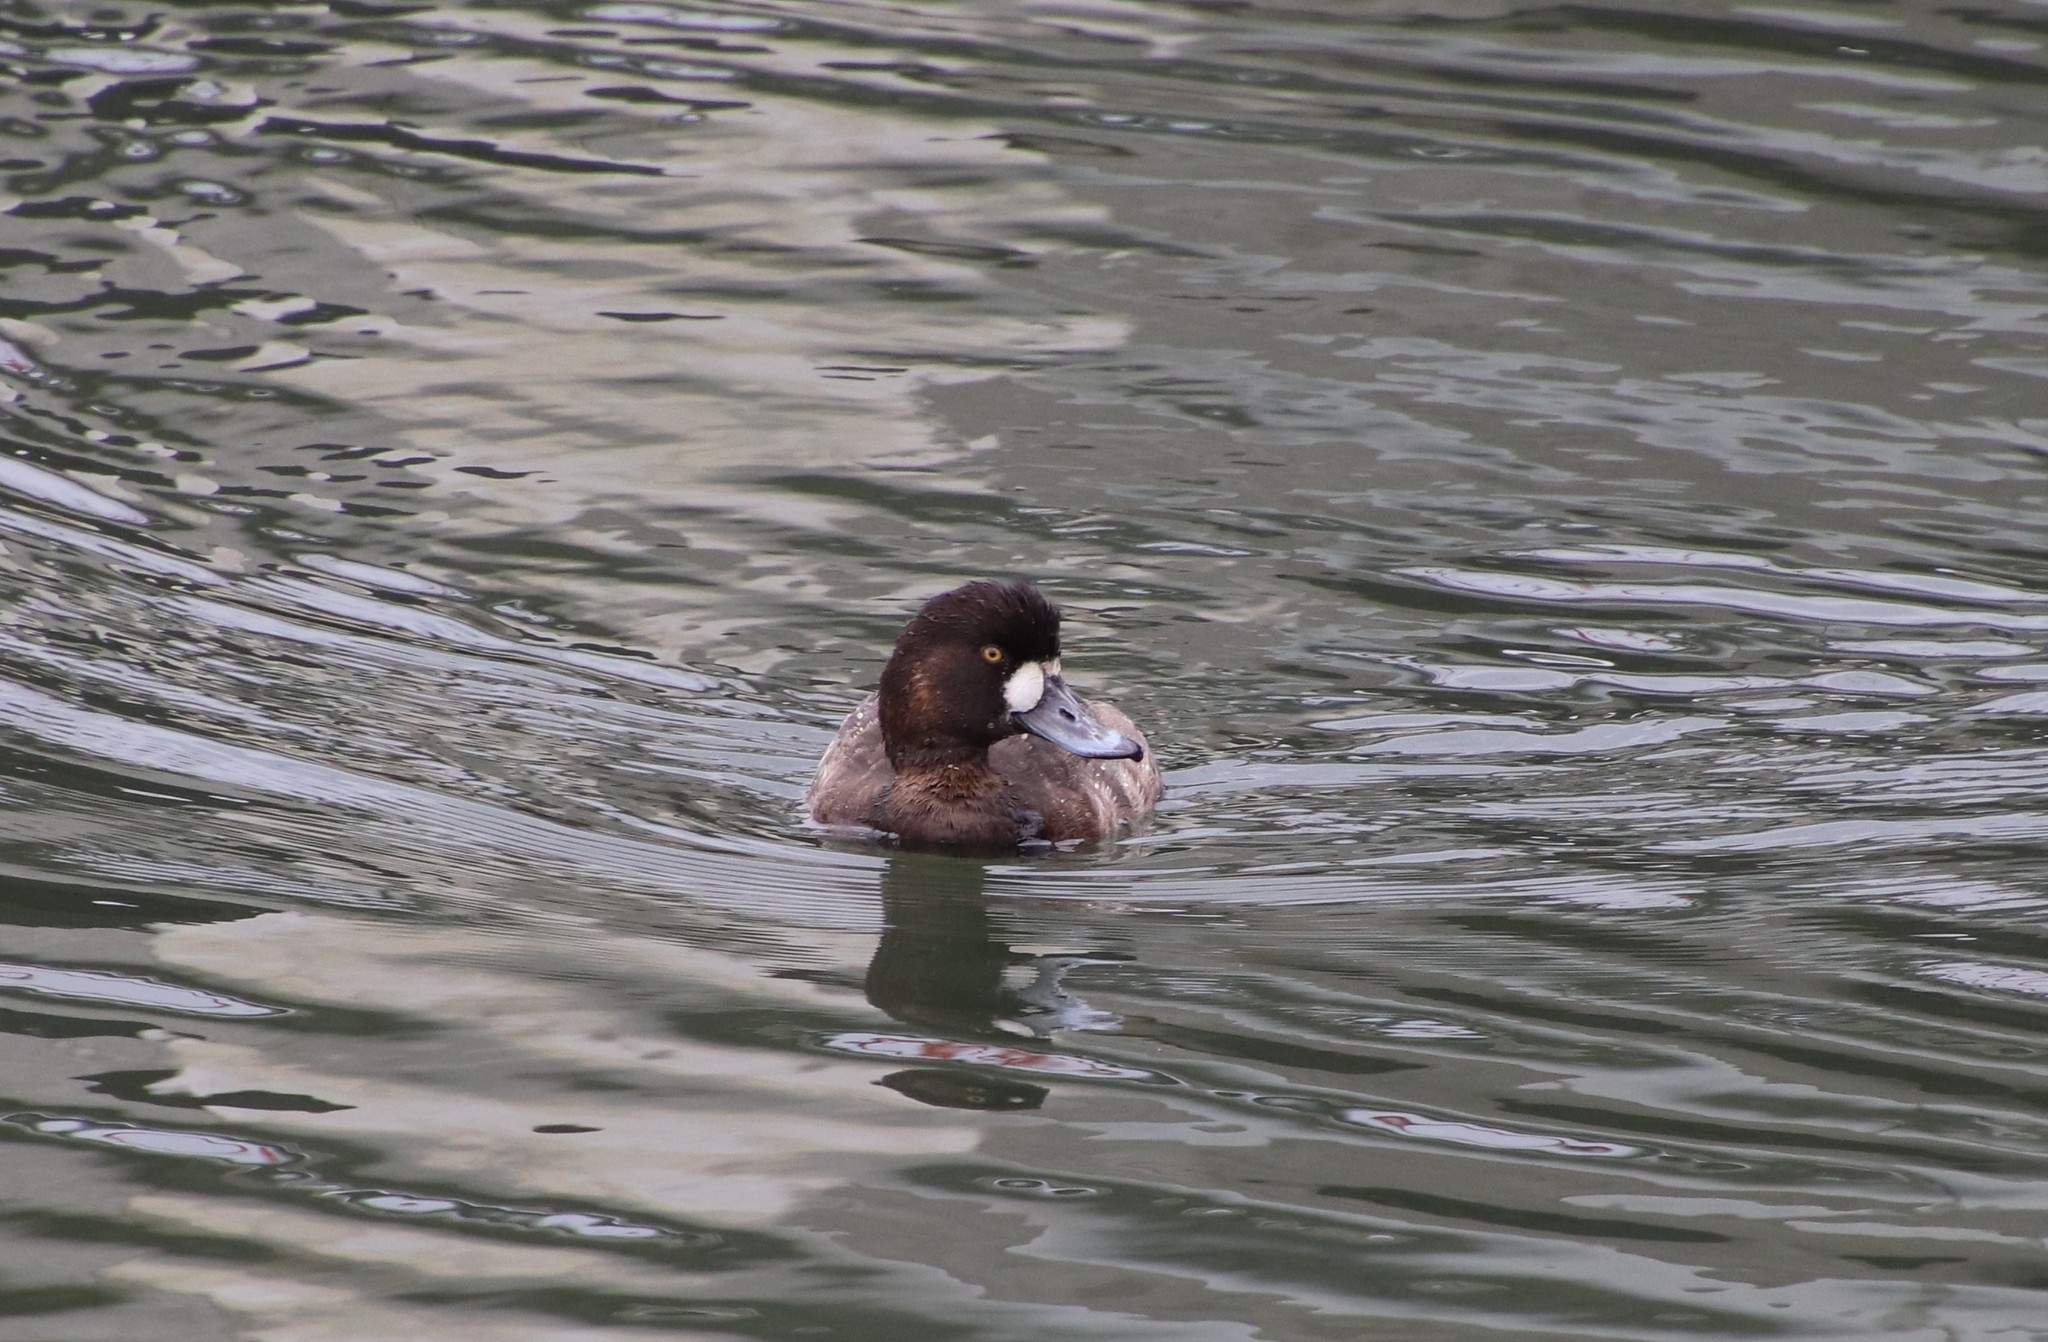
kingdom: Animalia
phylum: Chordata
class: Aves
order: Anseriformes
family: Anatidae
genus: Aythya
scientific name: Aythya marila
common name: Greater scaup
